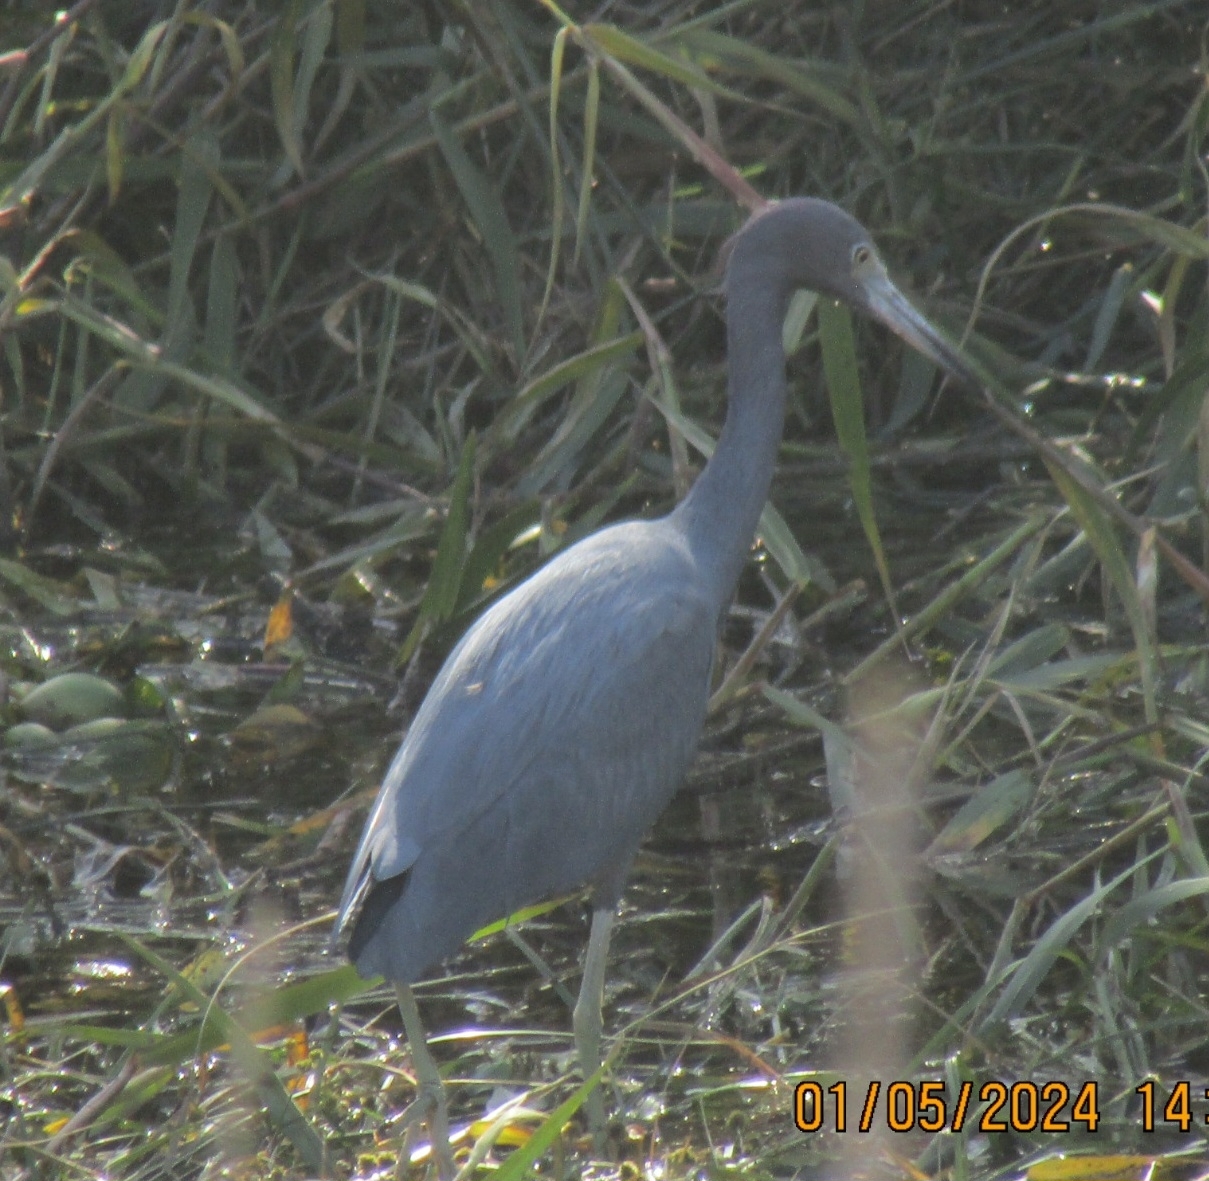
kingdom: Animalia
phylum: Chordata
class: Aves
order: Pelecaniformes
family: Ardeidae
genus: Egretta
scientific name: Egretta caerulea
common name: Little blue heron
